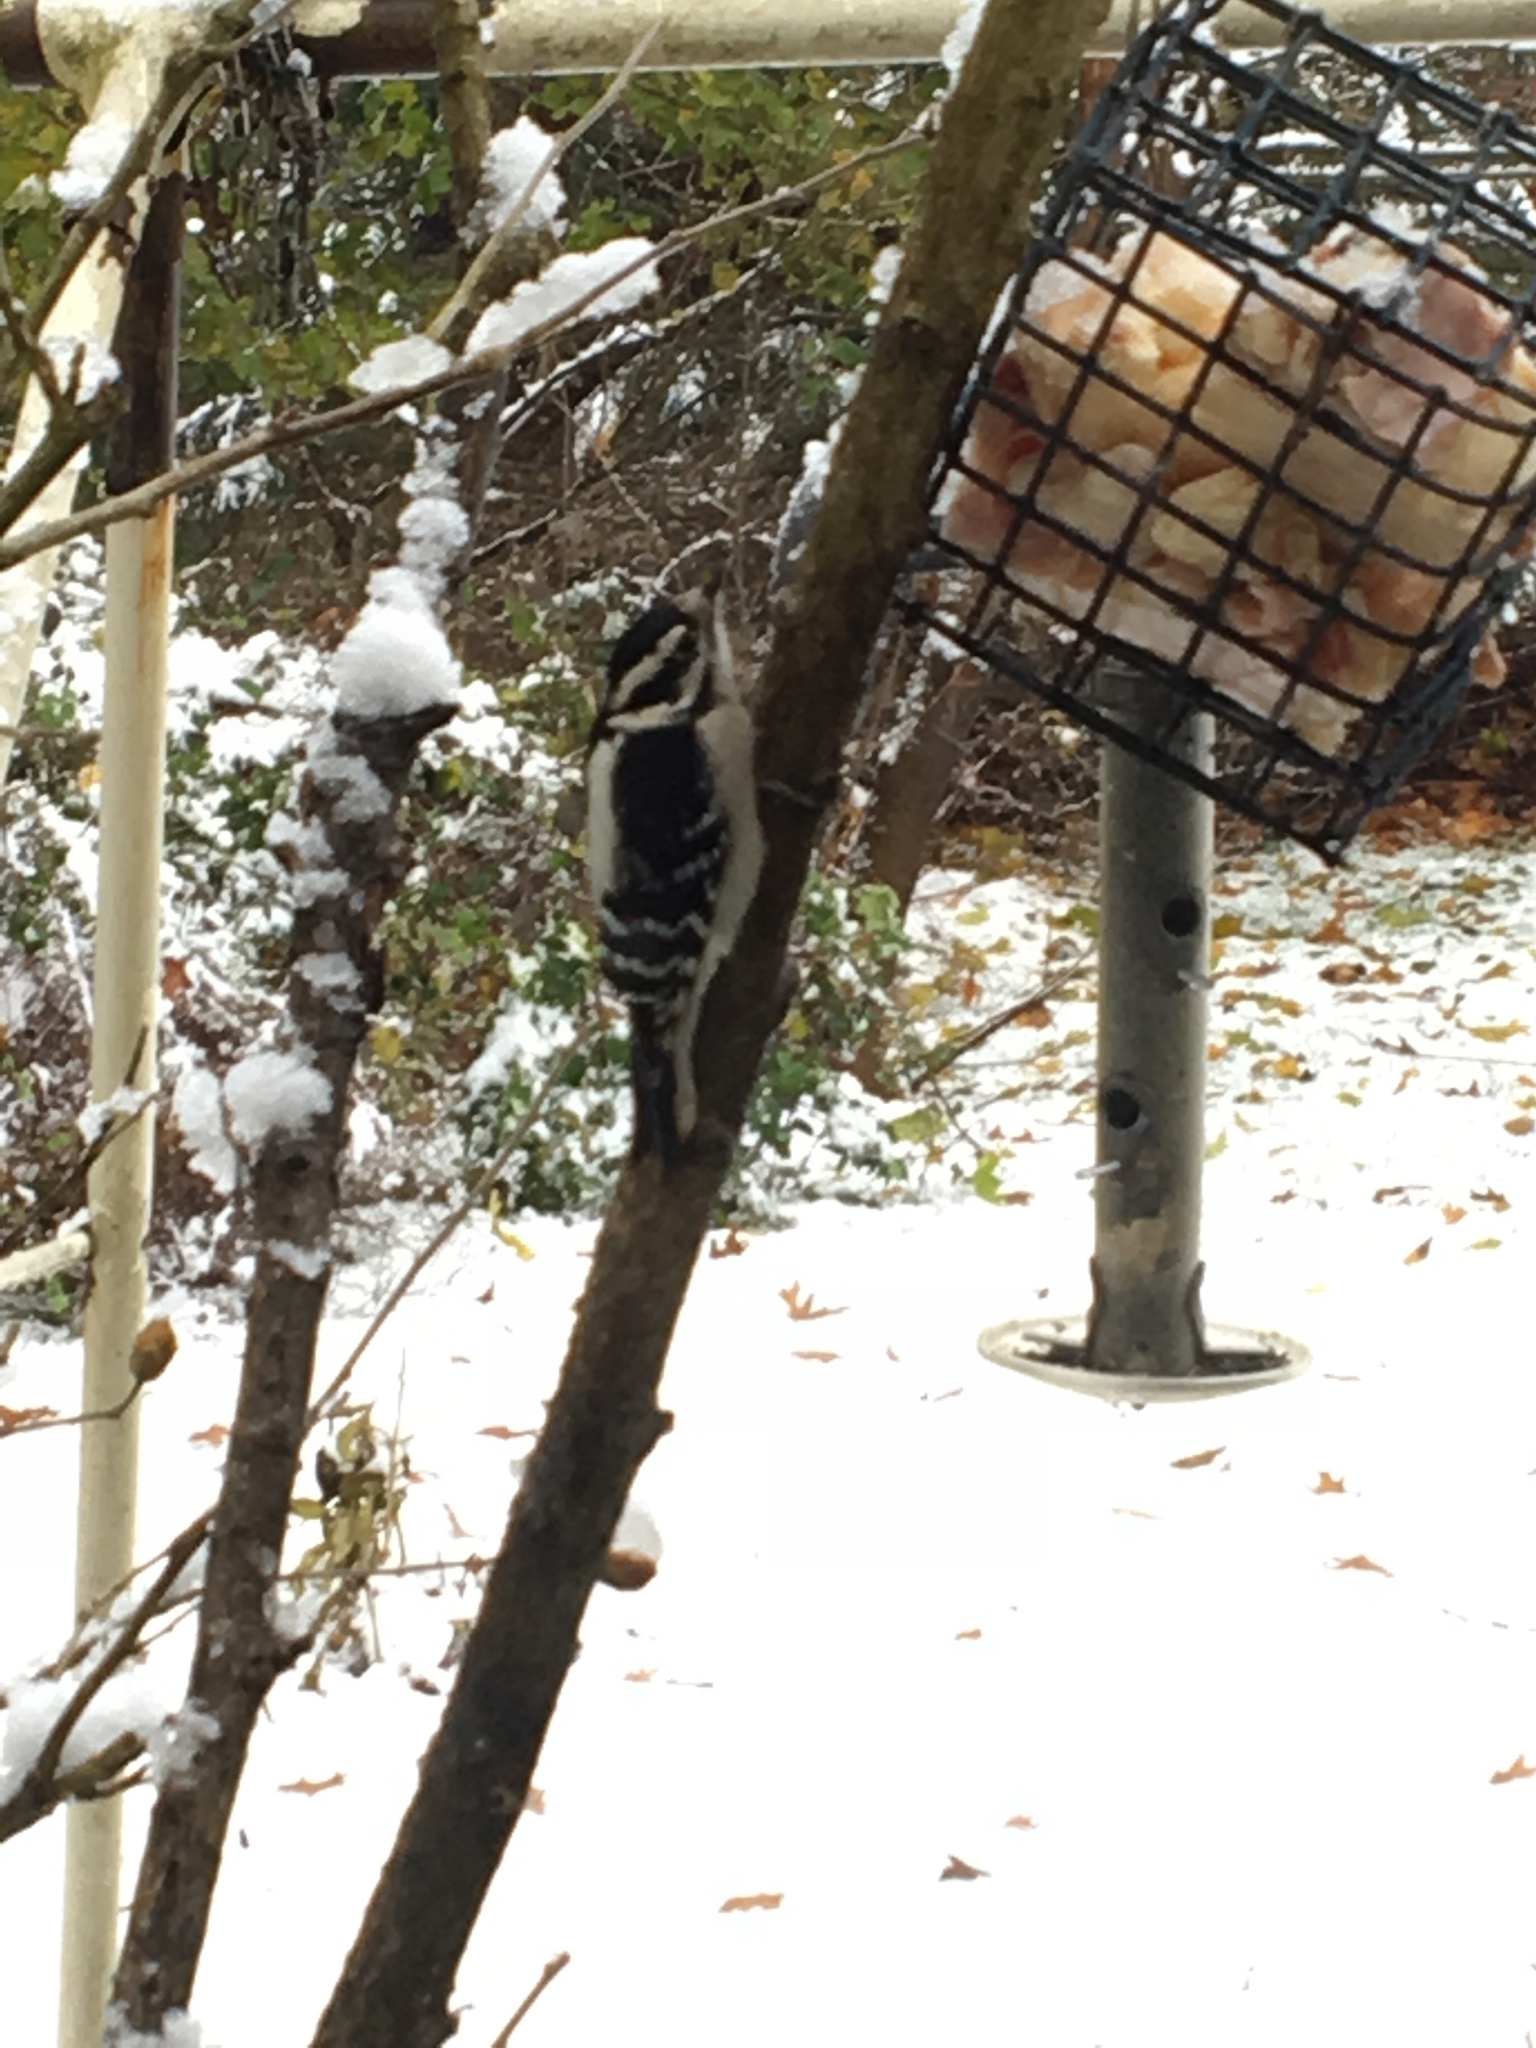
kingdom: Animalia
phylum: Chordata
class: Aves
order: Piciformes
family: Picidae
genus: Dryobates
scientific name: Dryobates pubescens
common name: Downy woodpecker
